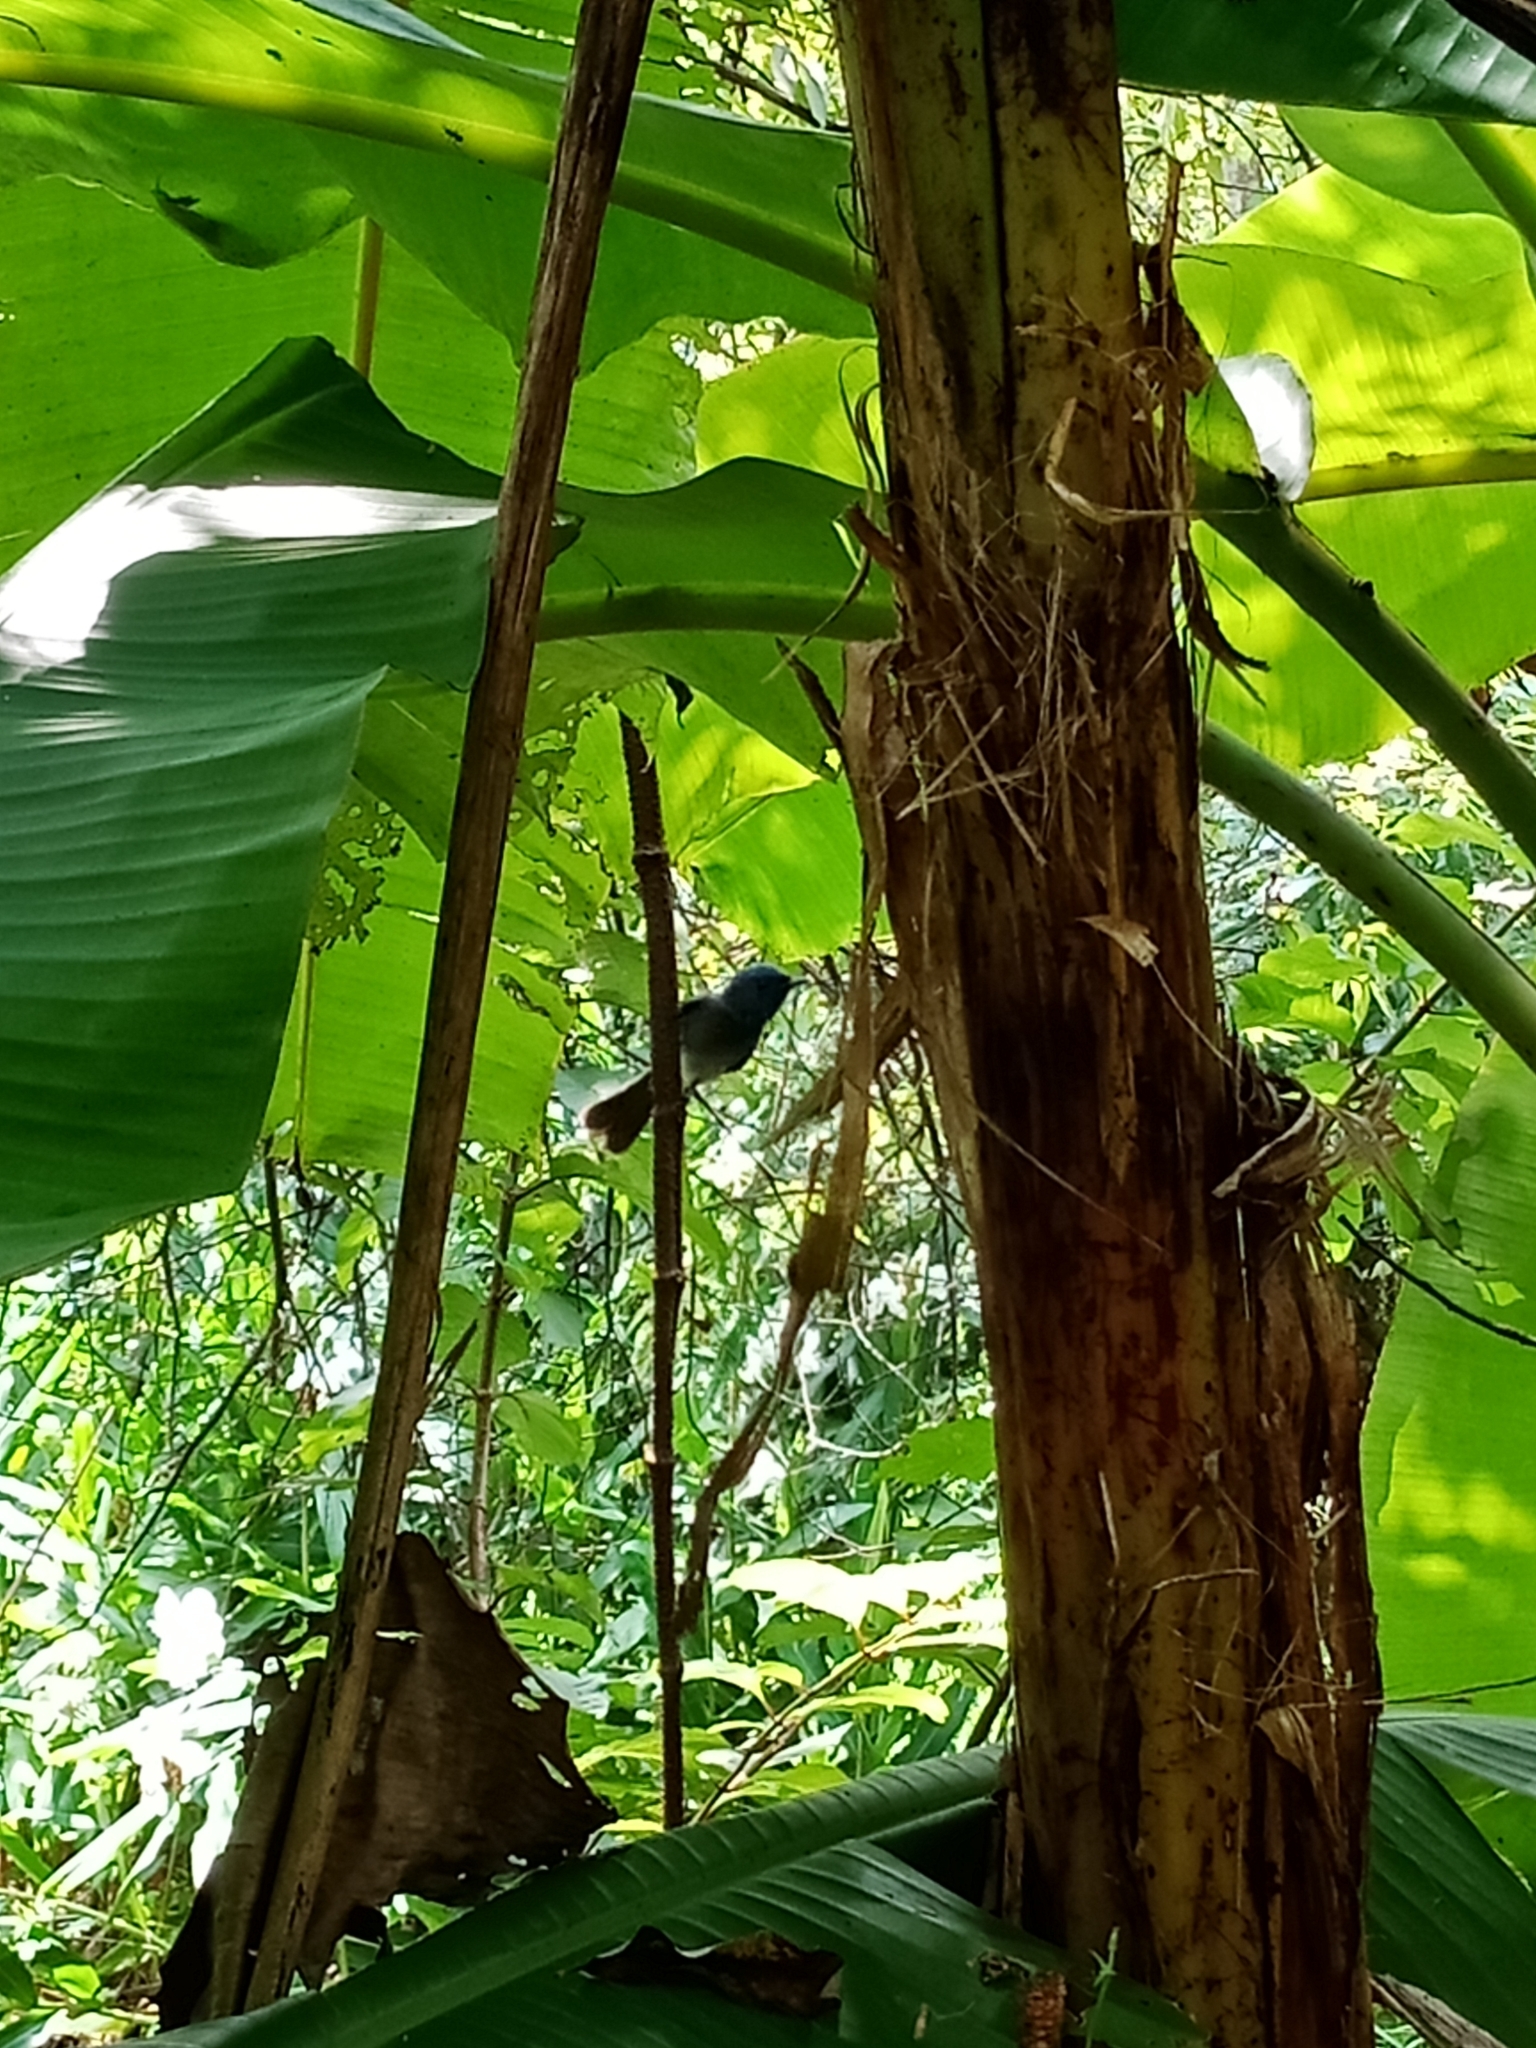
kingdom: Animalia
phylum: Chordata
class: Aves
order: Passeriformes
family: Monarchidae
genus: Hypothymis
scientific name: Hypothymis azurea
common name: Black-naped monarch
